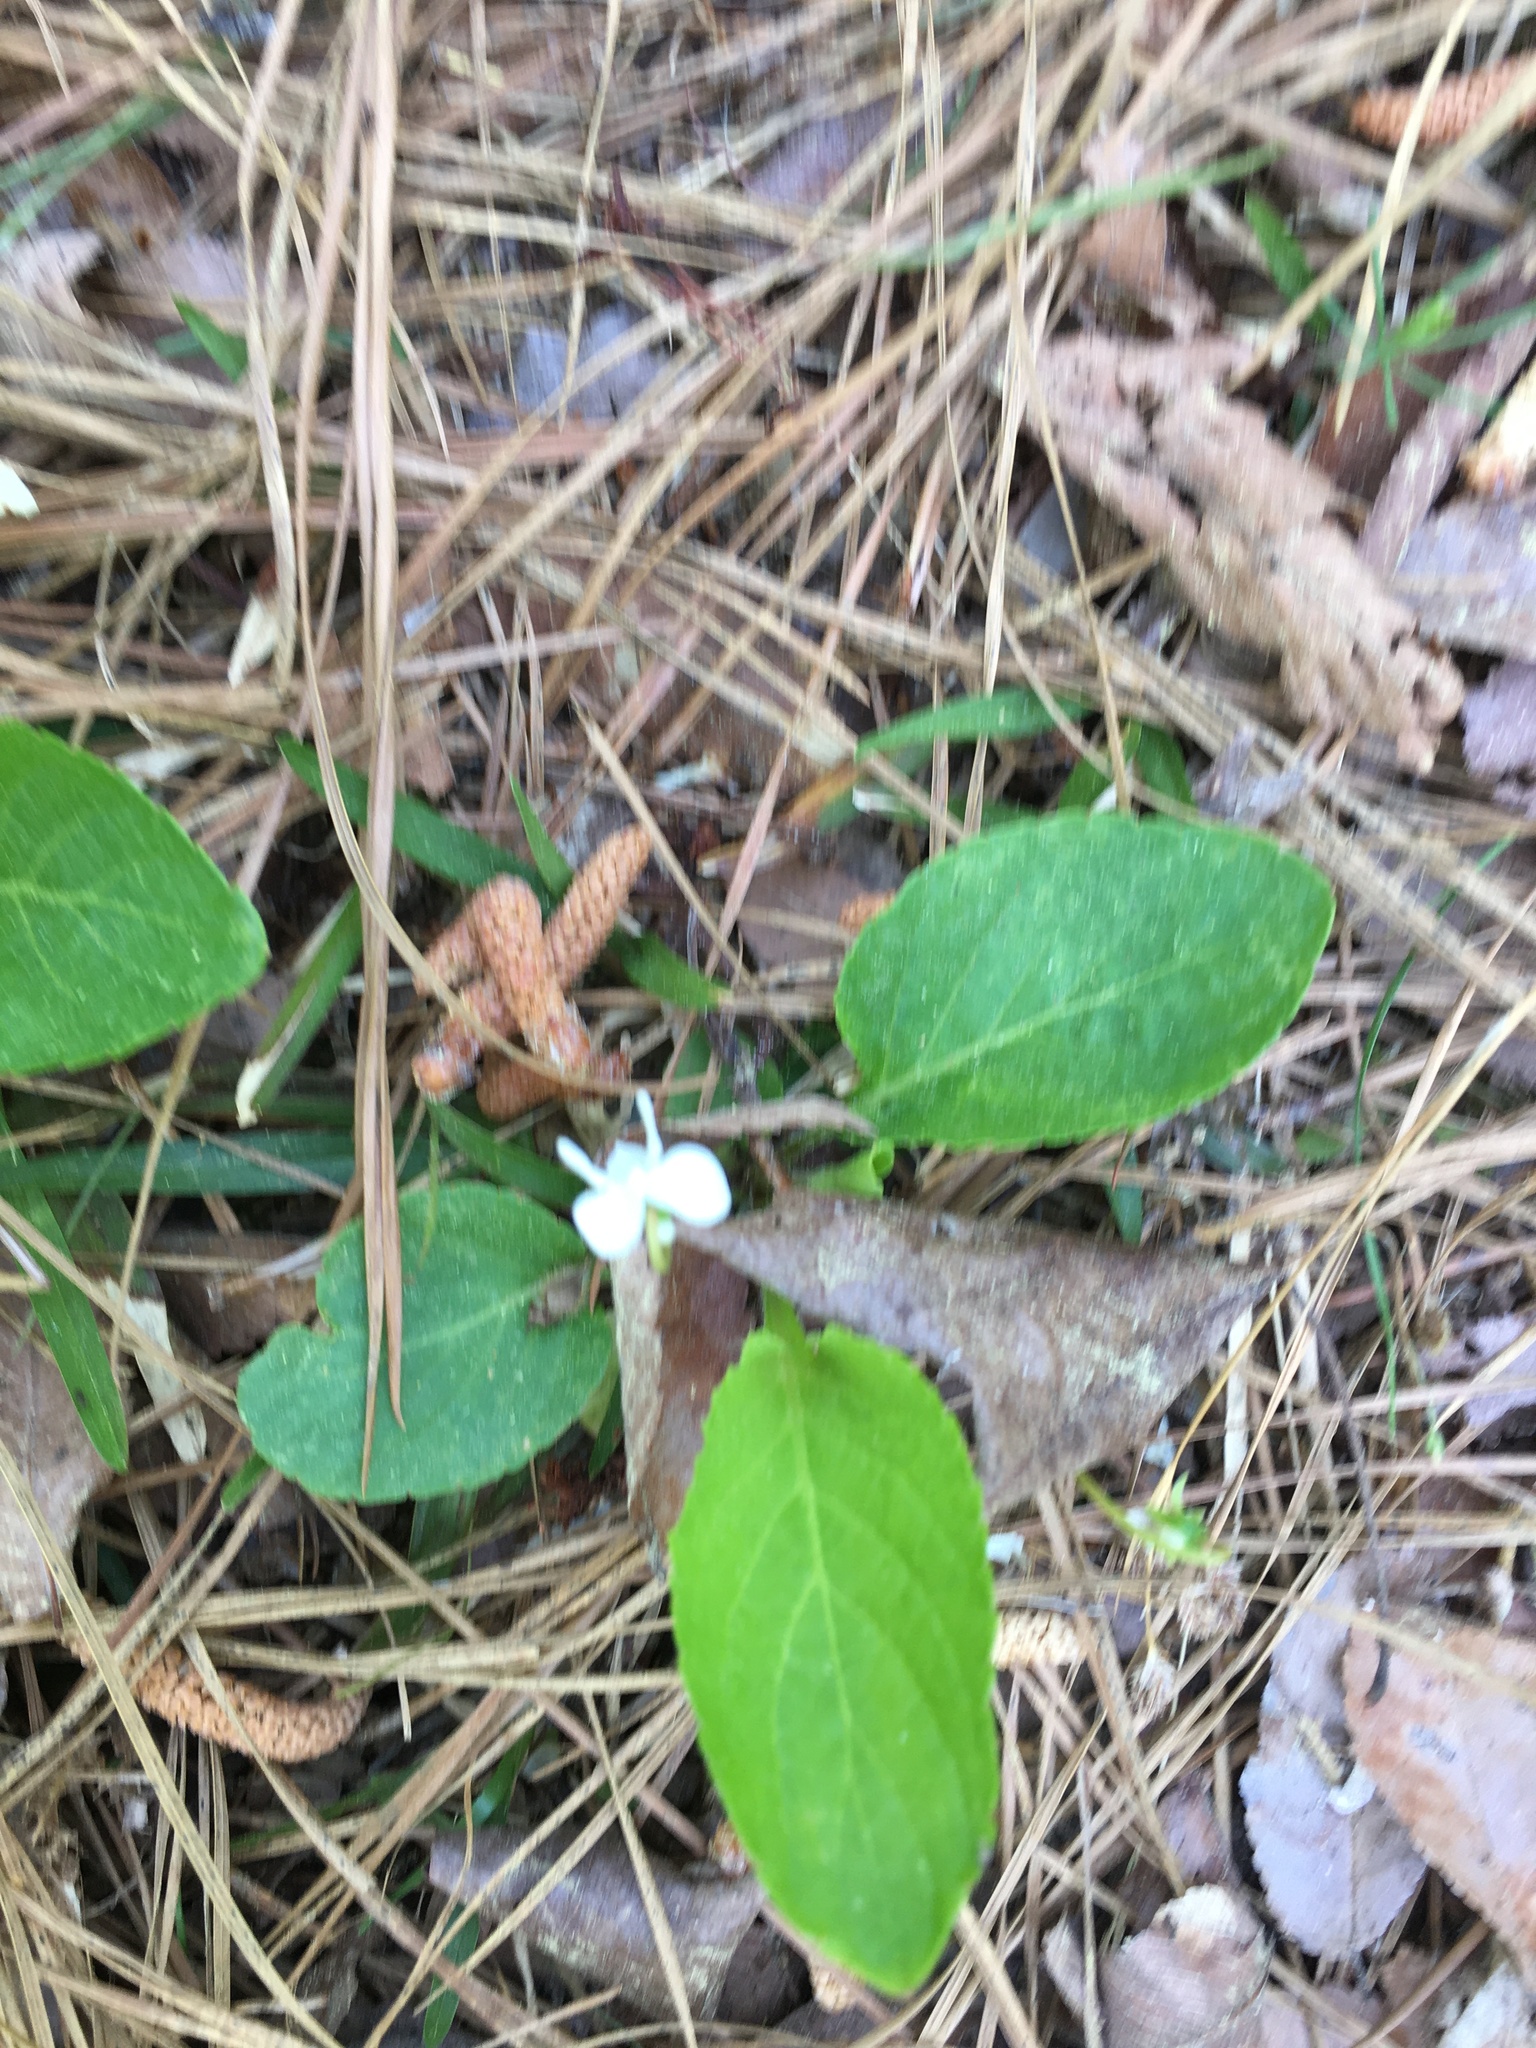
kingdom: Plantae
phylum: Tracheophyta
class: Magnoliopsida
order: Malpighiales
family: Violaceae
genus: Viola
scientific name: Viola primulifolia
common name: Primrose-leaf violet
